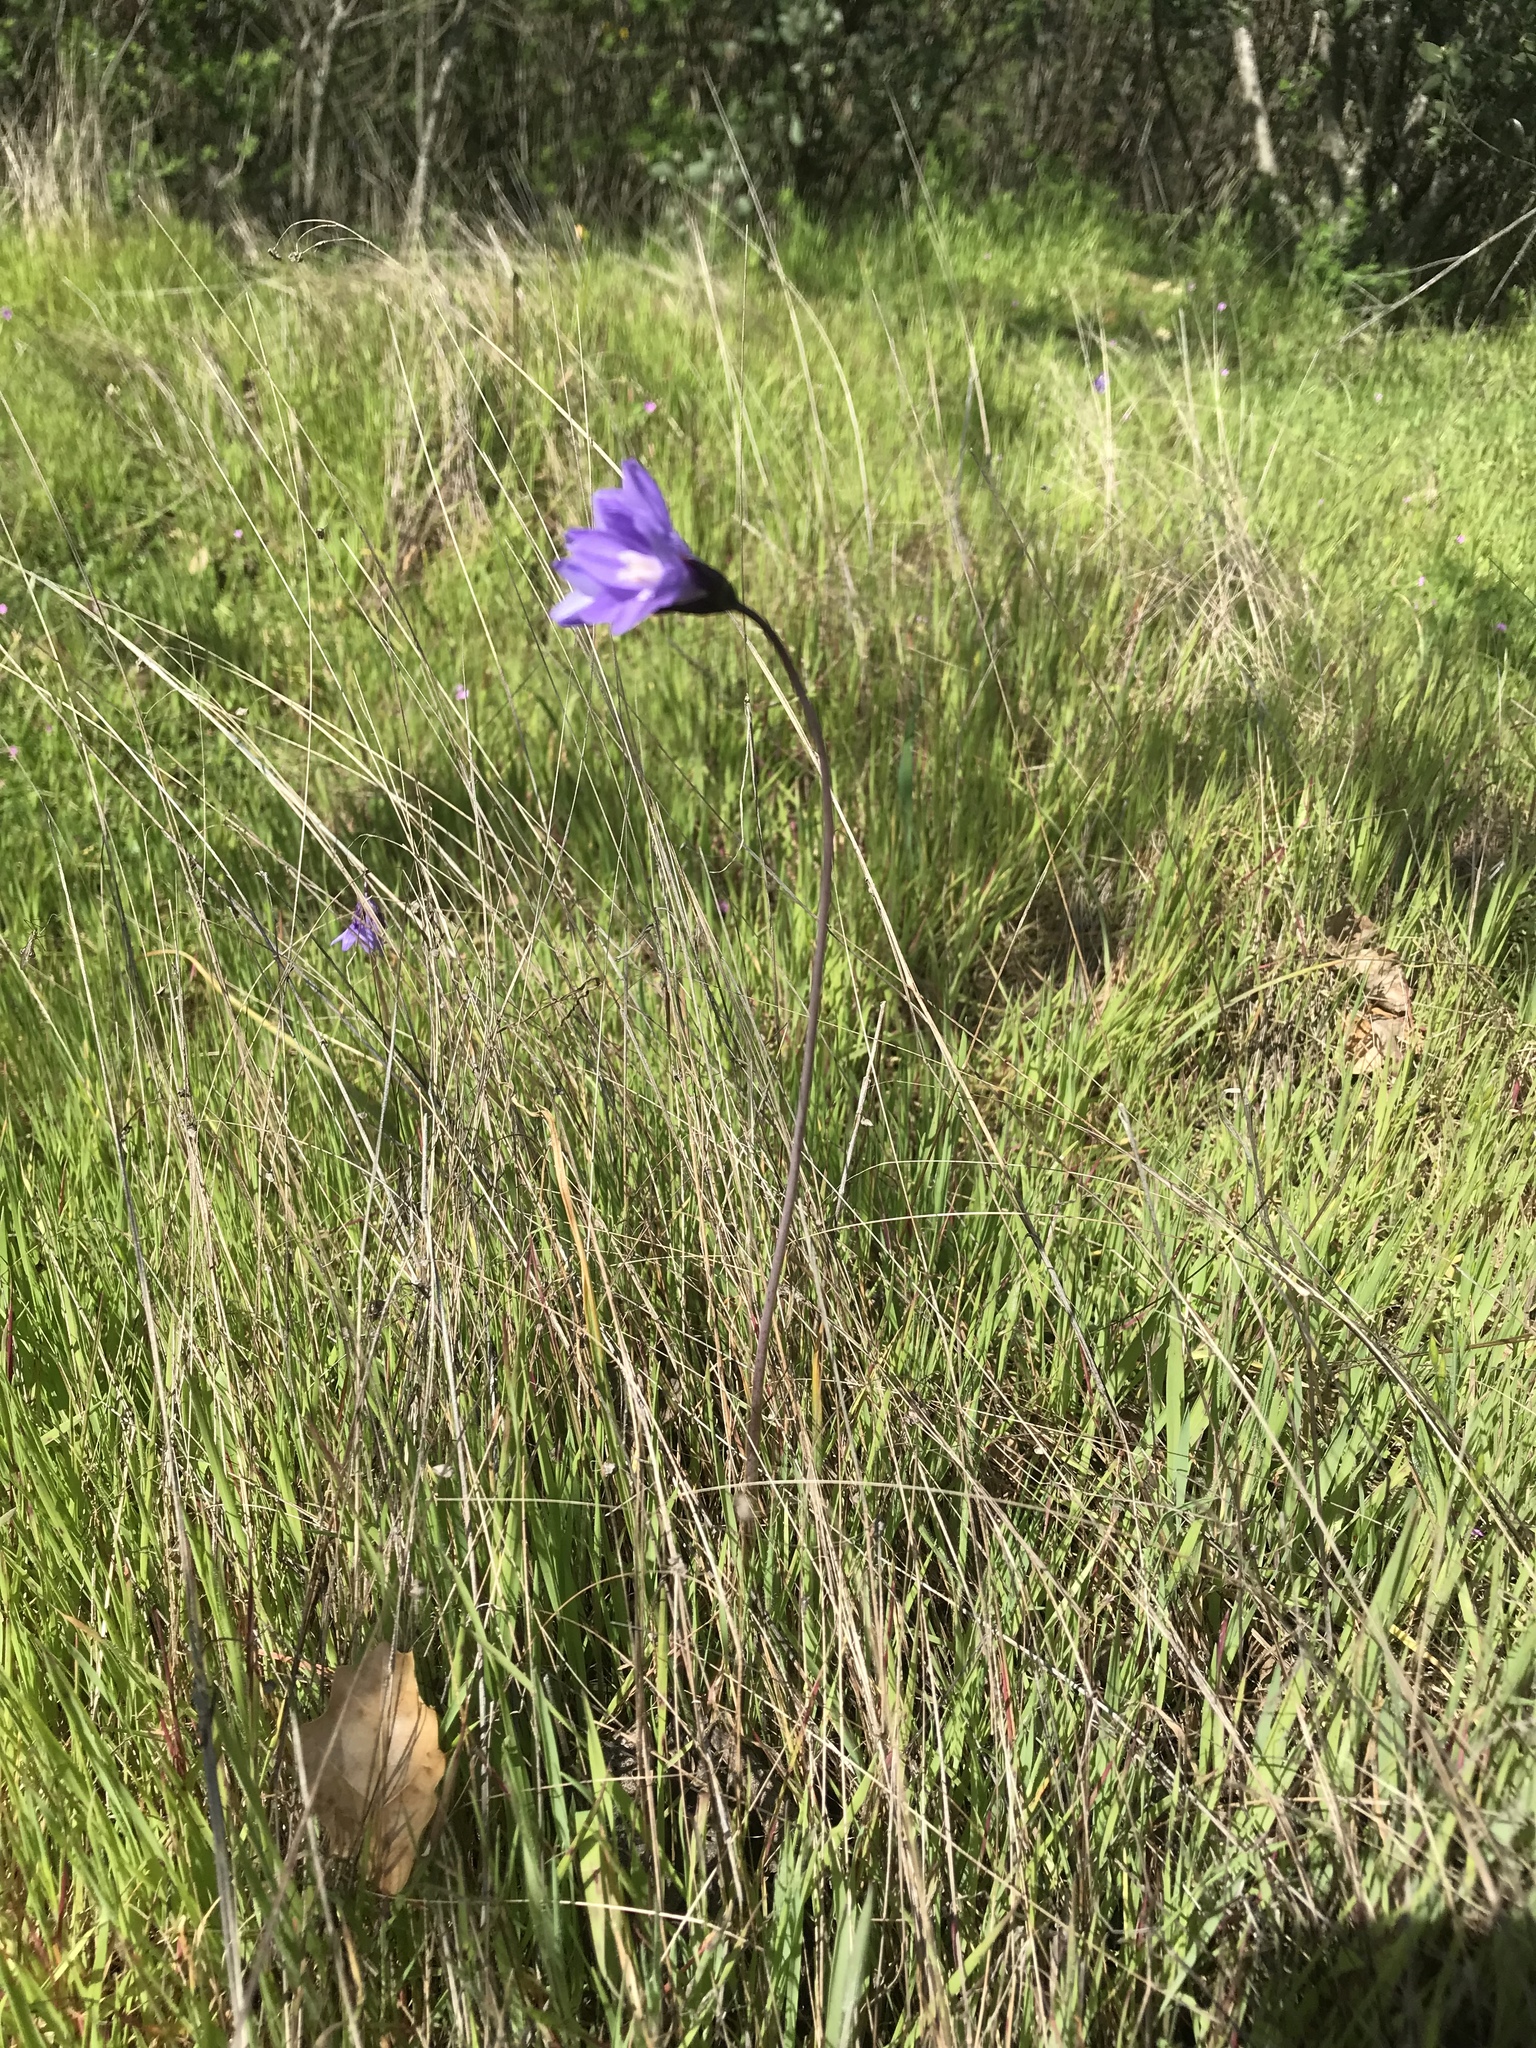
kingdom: Plantae
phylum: Tracheophyta
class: Liliopsida
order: Asparagales
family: Asparagaceae
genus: Dipterostemon
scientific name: Dipterostemon capitatus
